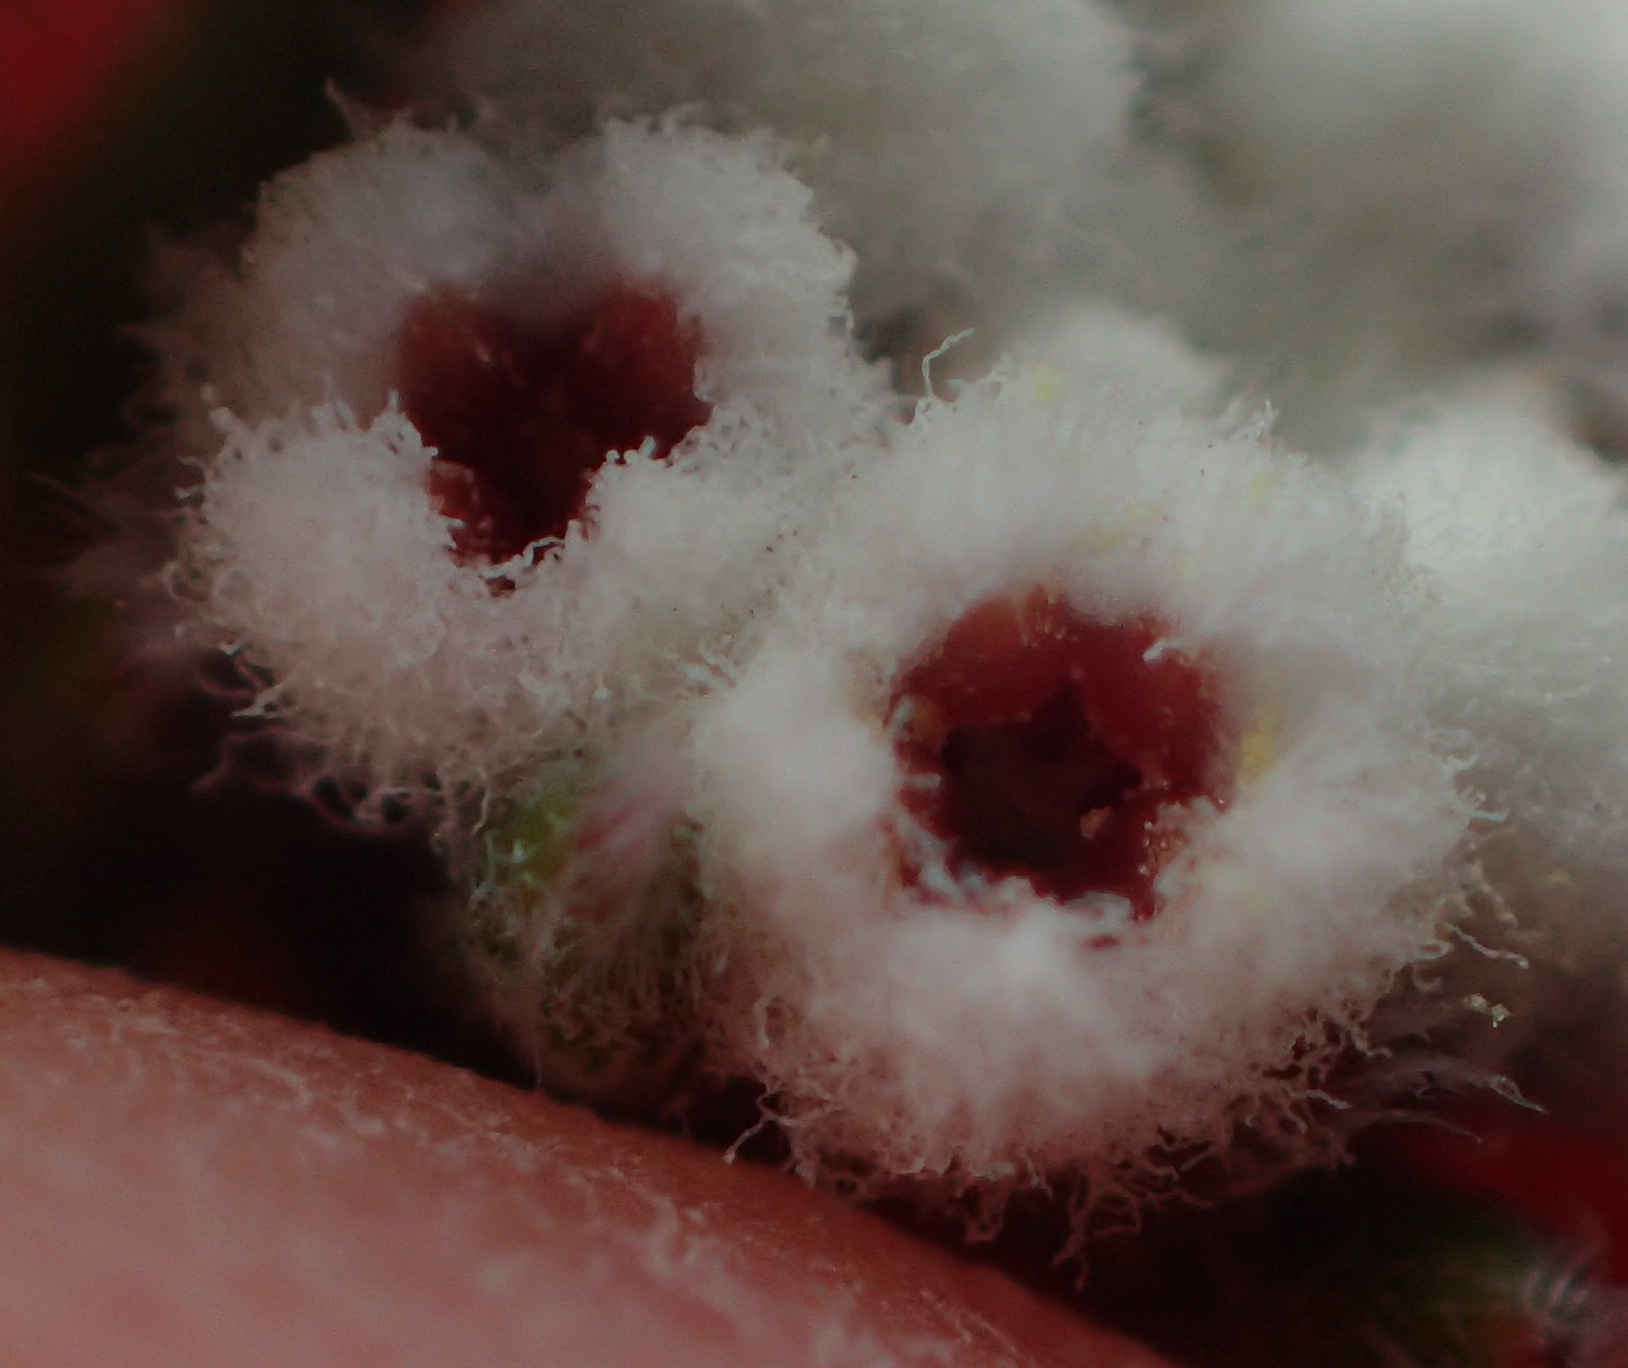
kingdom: Plantae
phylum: Tracheophyta
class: Magnoliopsida
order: Rosales
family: Rhamnaceae
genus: Phylica
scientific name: Phylica karroica
